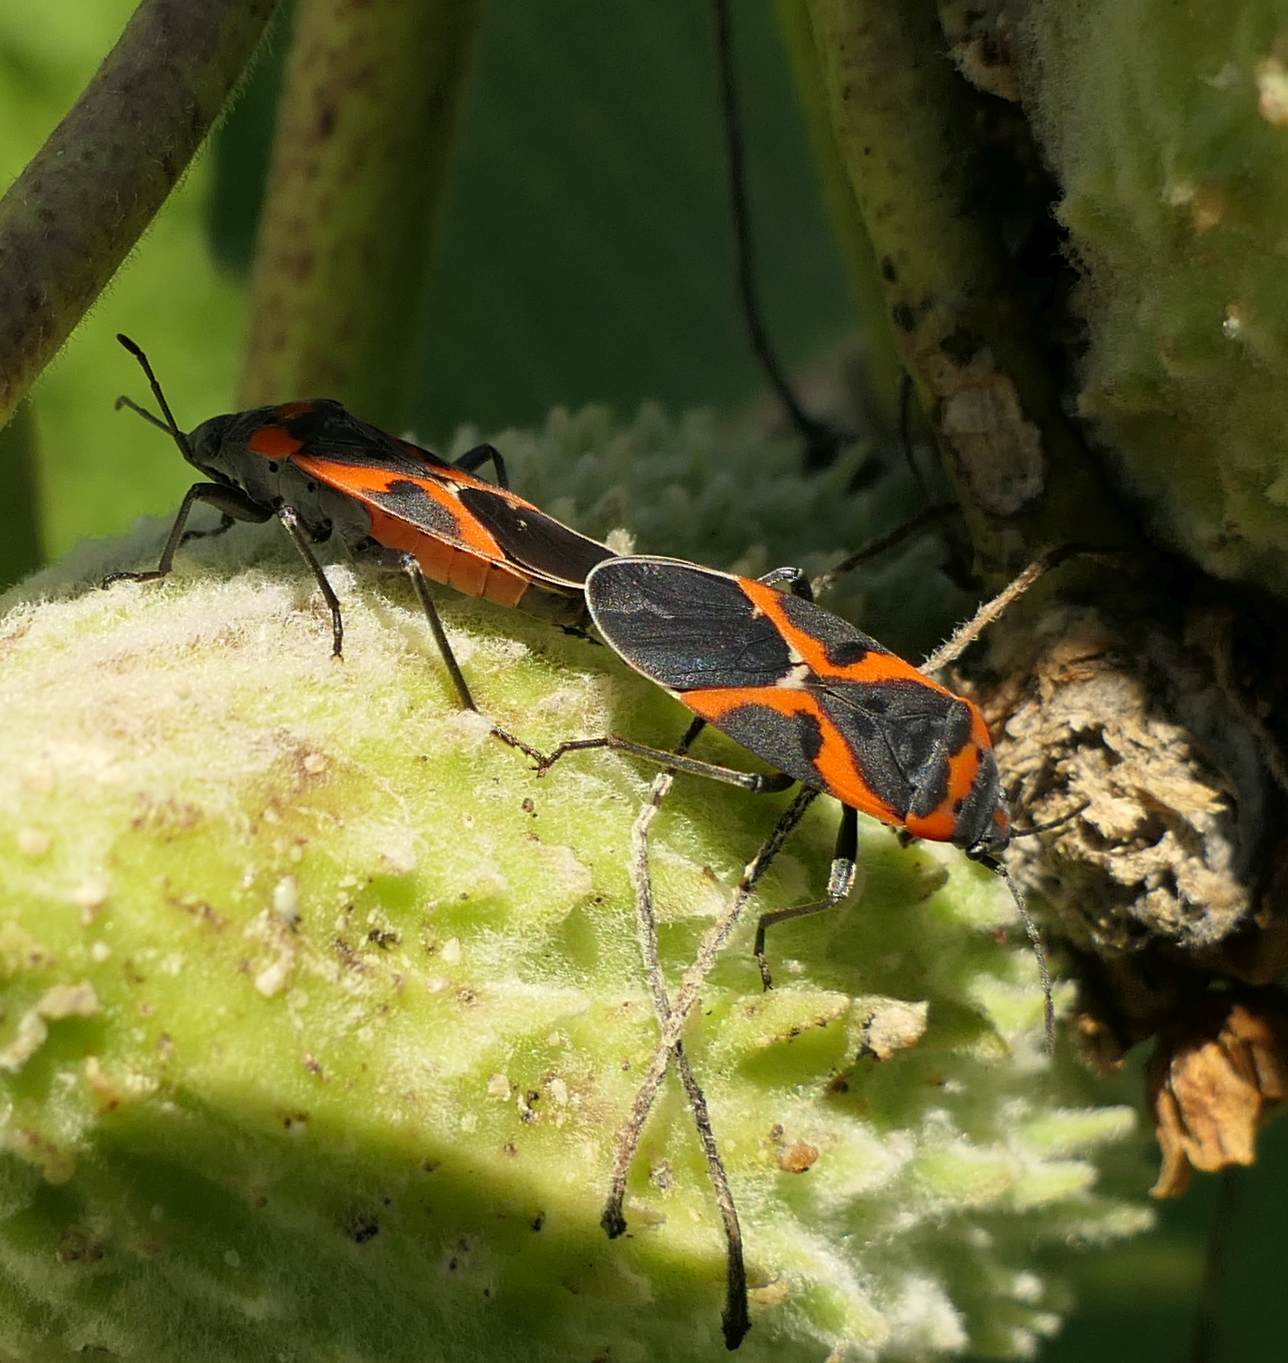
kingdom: Animalia
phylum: Arthropoda
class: Insecta
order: Hemiptera
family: Lygaeidae
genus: Lygaeus
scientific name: Lygaeus kalmii
